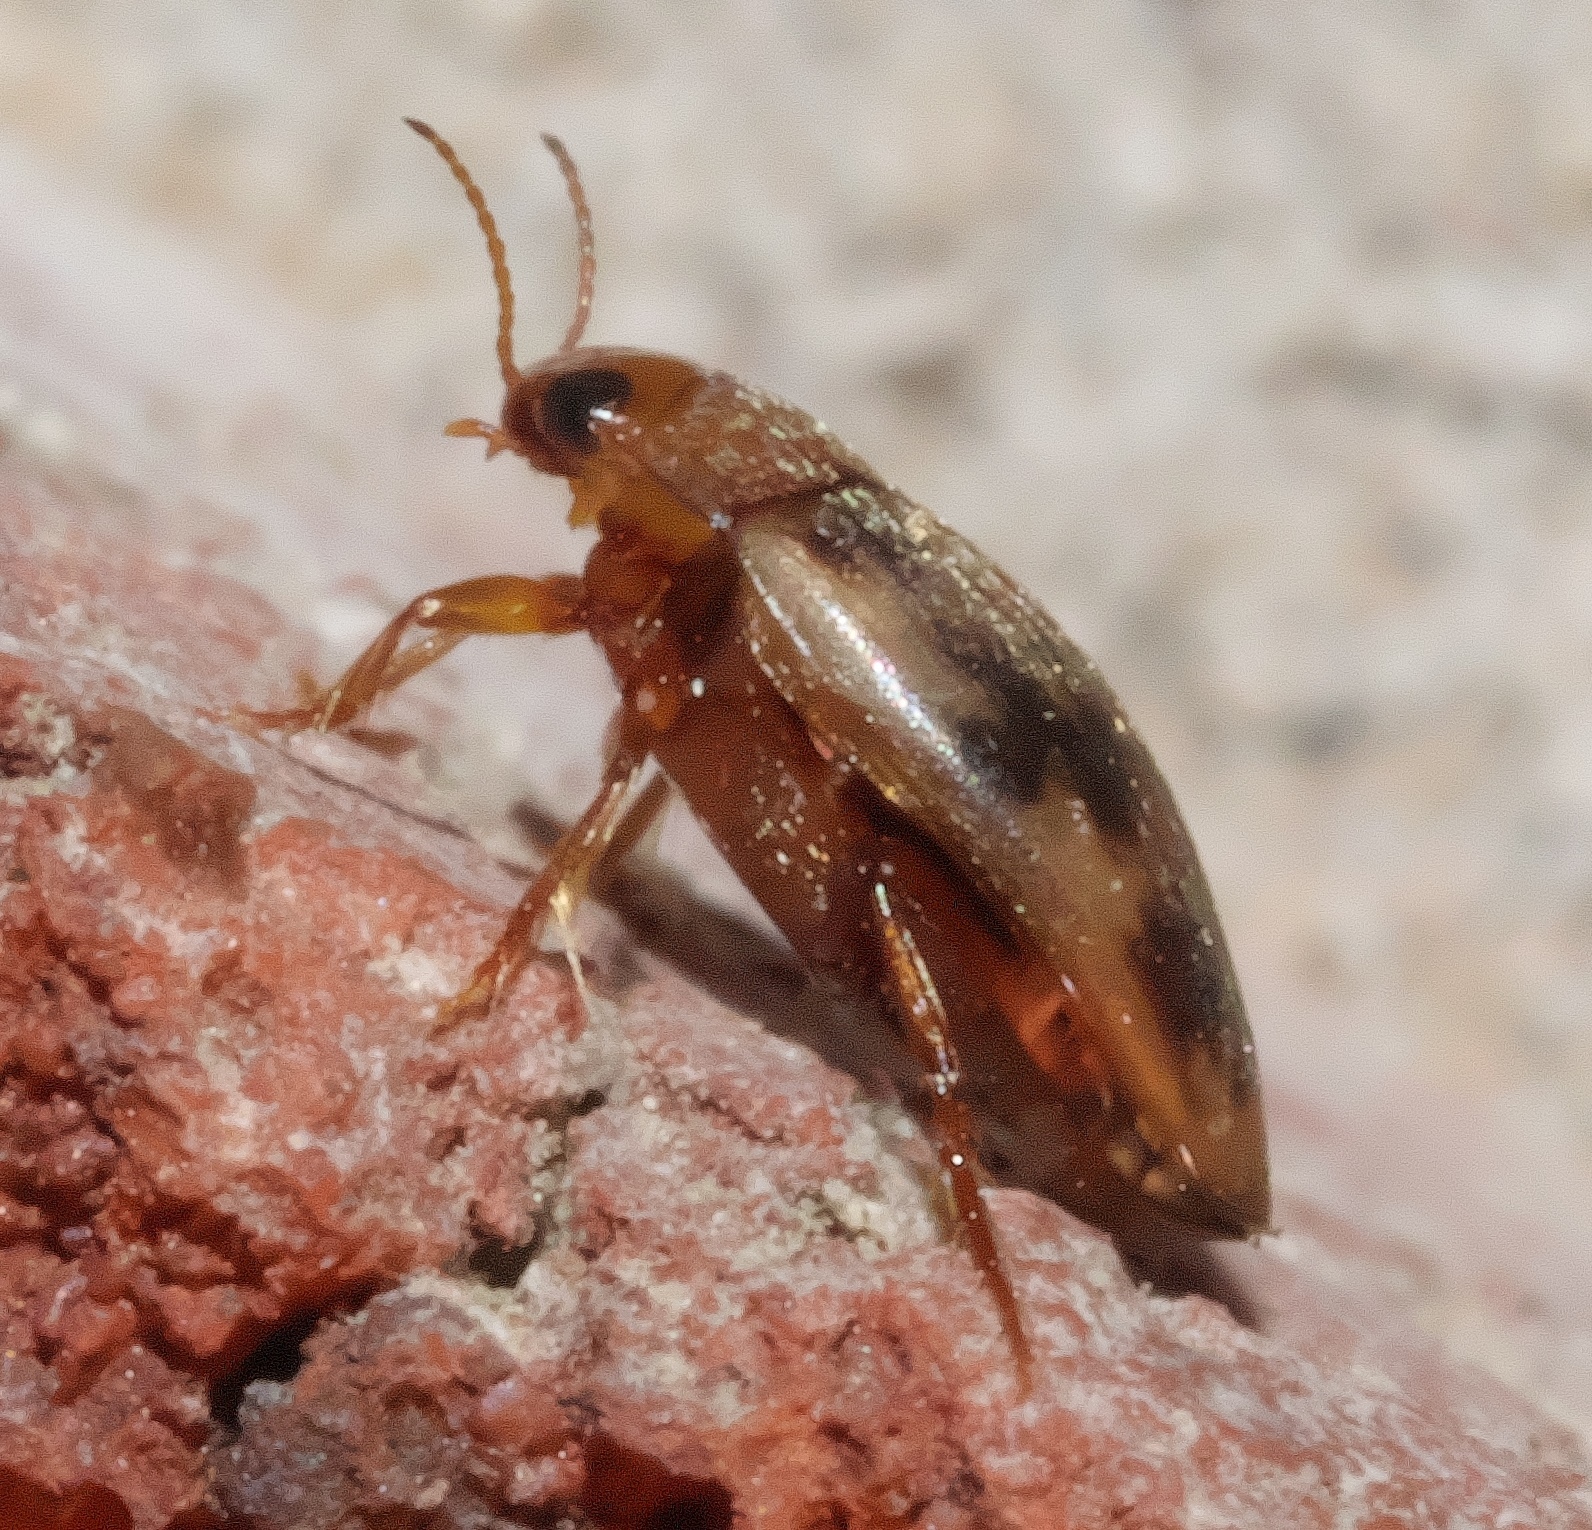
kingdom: Animalia
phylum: Arthropoda
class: Insecta
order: Coleoptera
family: Dytiscidae
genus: Neoporus
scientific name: Neoporus
